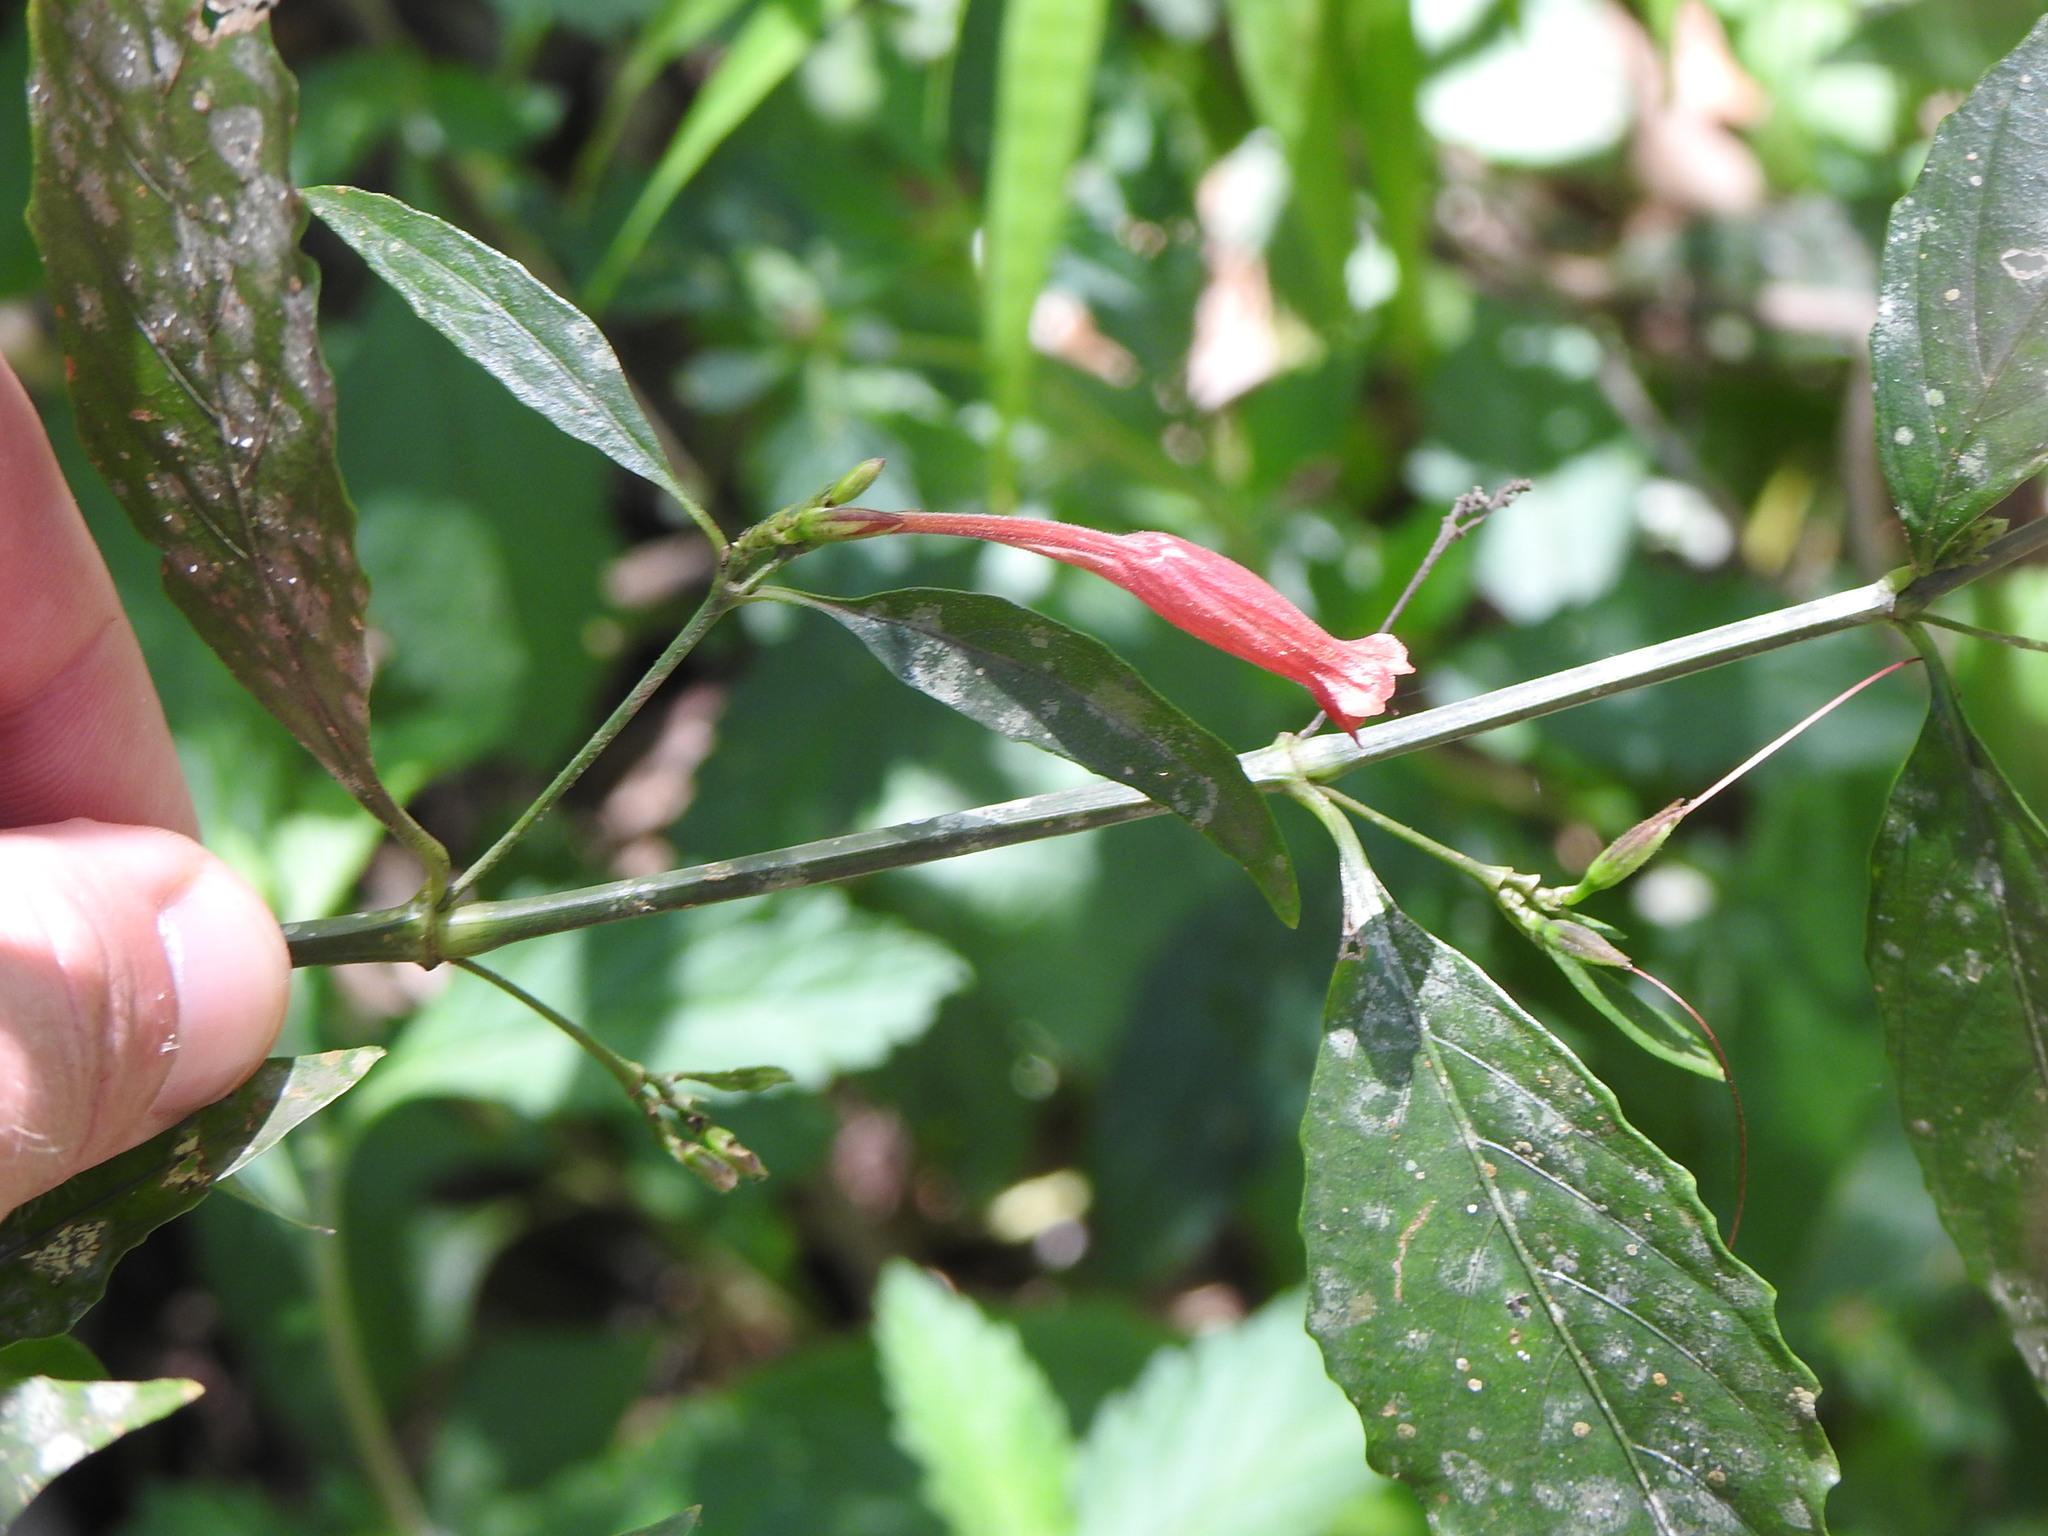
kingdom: Plantae
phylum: Tracheophyta
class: Magnoliopsida
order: Lamiales
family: Acanthaceae
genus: Ruellia
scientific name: Ruellia angustiflora
